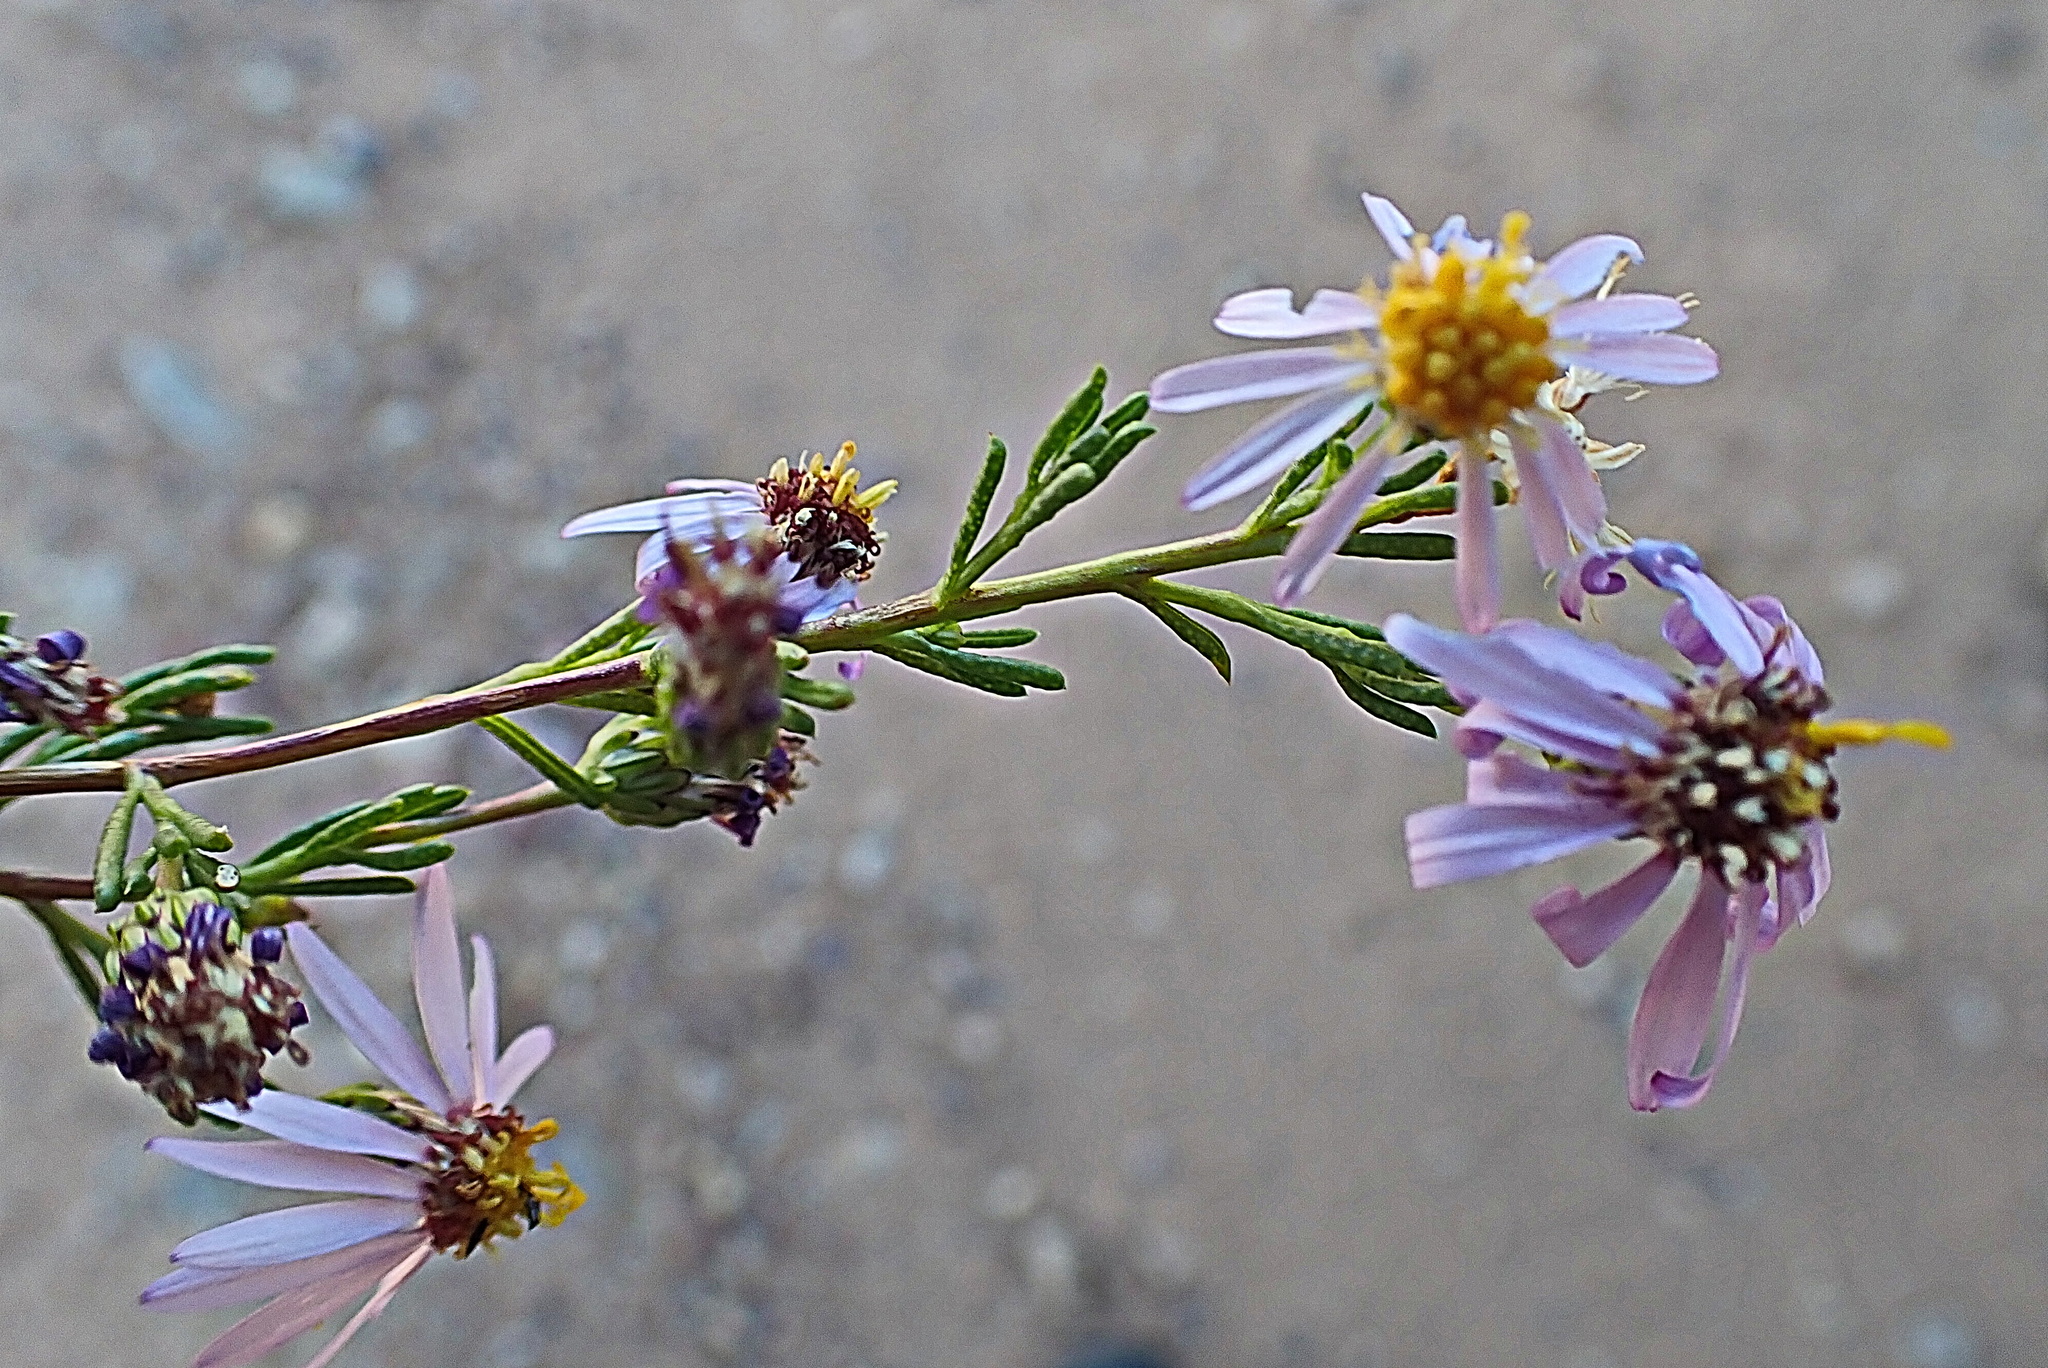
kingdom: Plantae
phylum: Tracheophyta
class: Magnoliopsida
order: Asterales
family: Asteraceae
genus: Felicia
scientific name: Felicia filifolia
